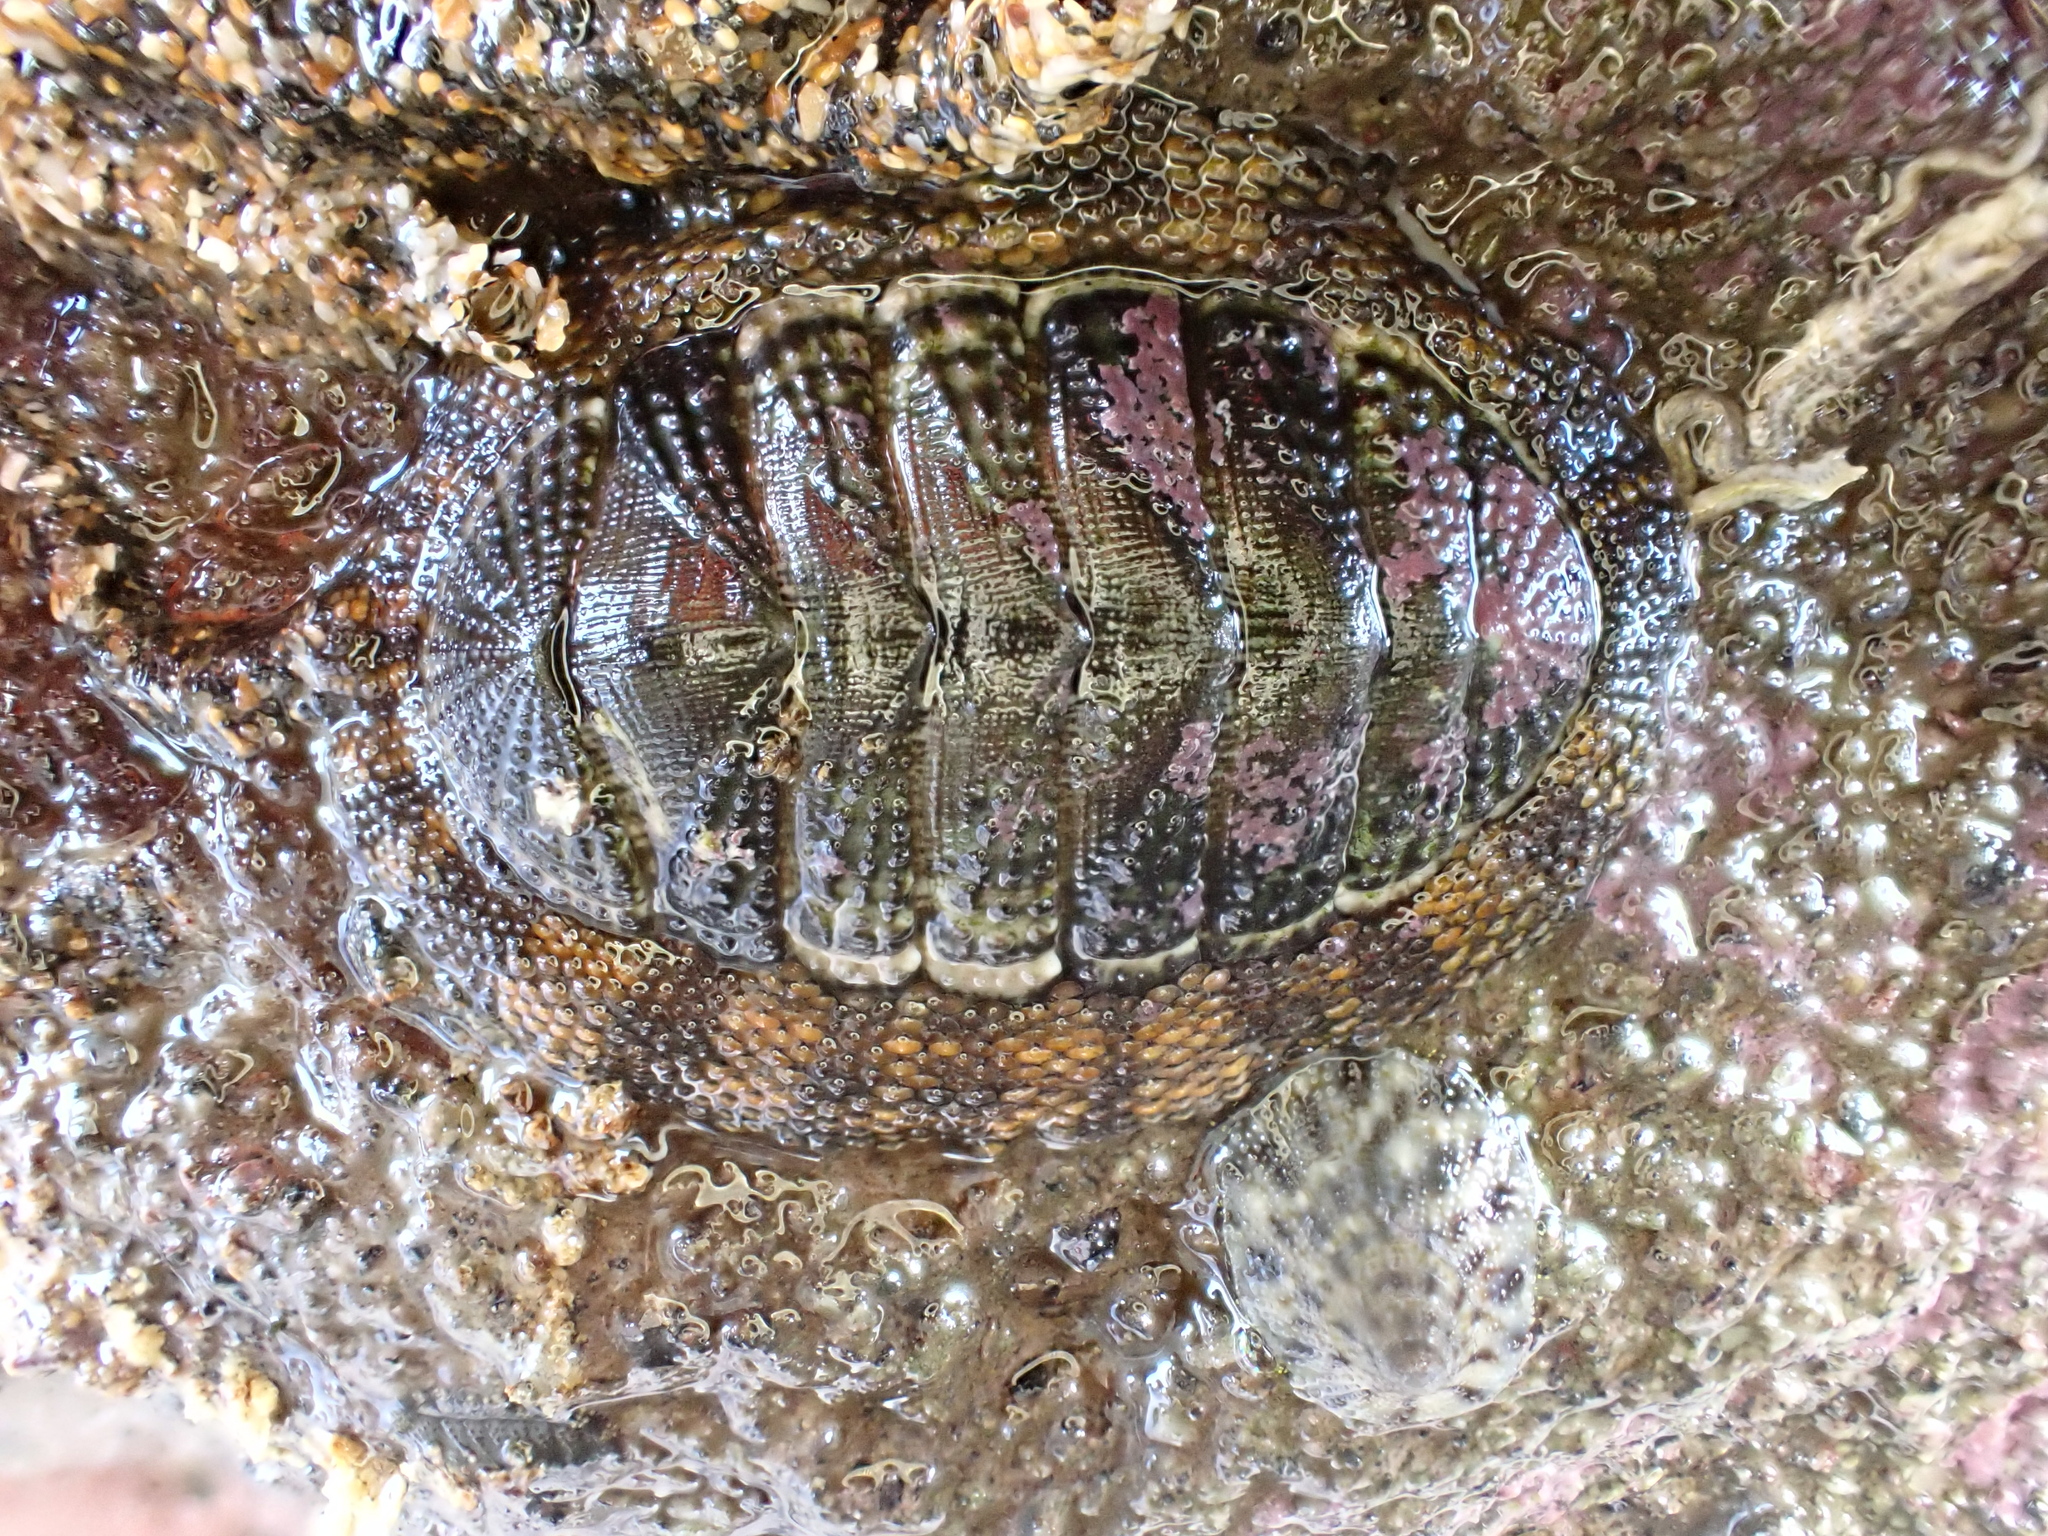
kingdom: Animalia
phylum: Mollusca
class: Polyplacophora
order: Chitonida
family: Chitonidae
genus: Sypharochiton
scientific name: Sypharochiton pelliserpentis
